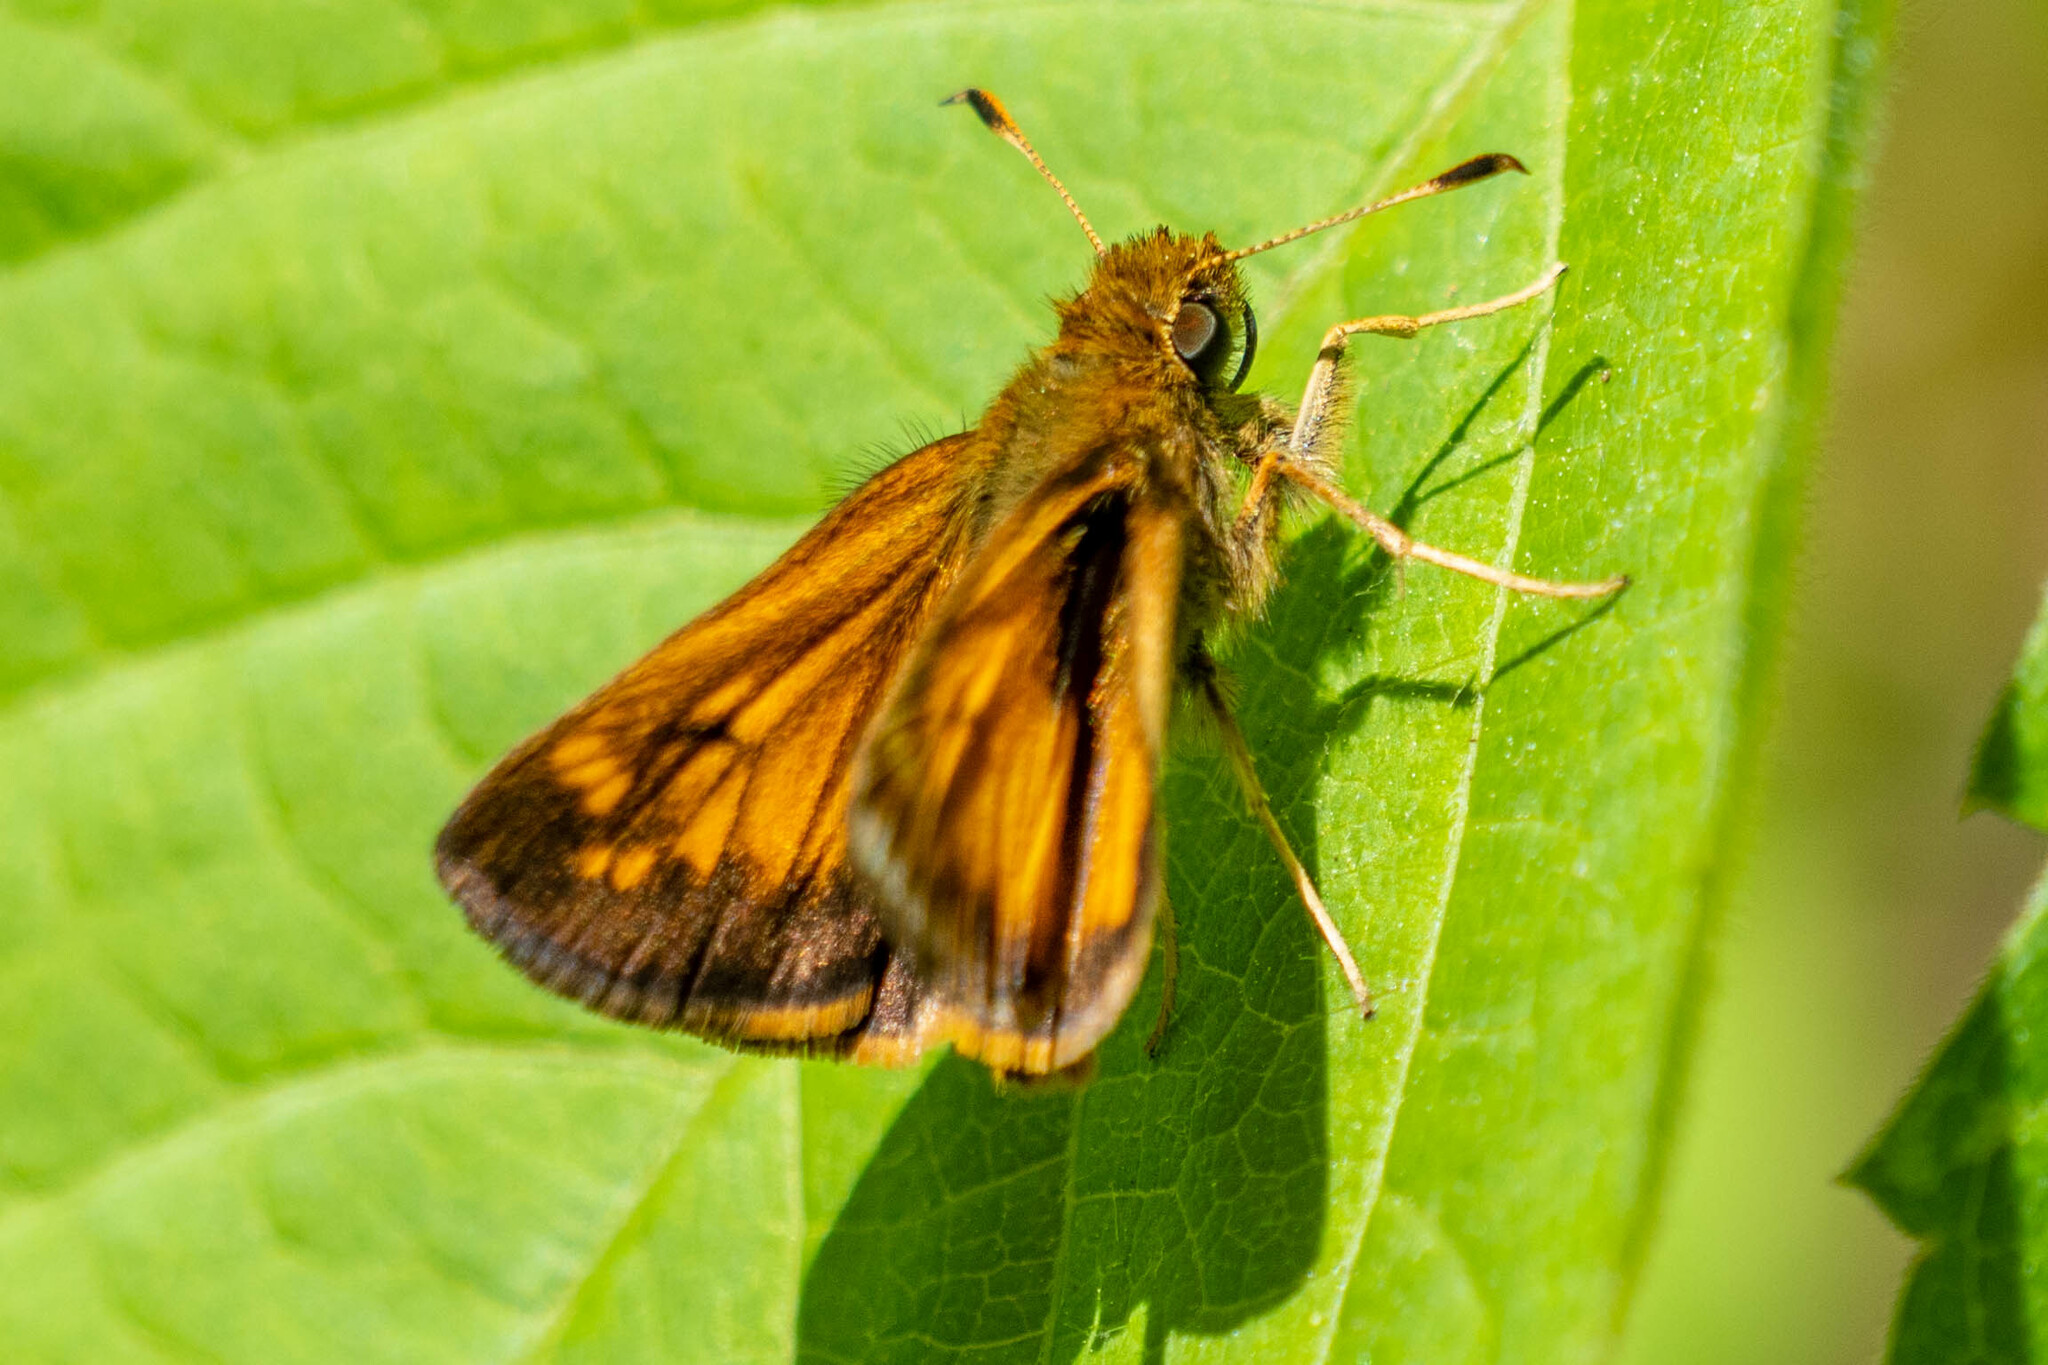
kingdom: Animalia
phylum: Arthropoda
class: Insecta
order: Lepidoptera
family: Hesperiidae
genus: Lon
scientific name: Lon hobomok
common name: Hobomok skipper
